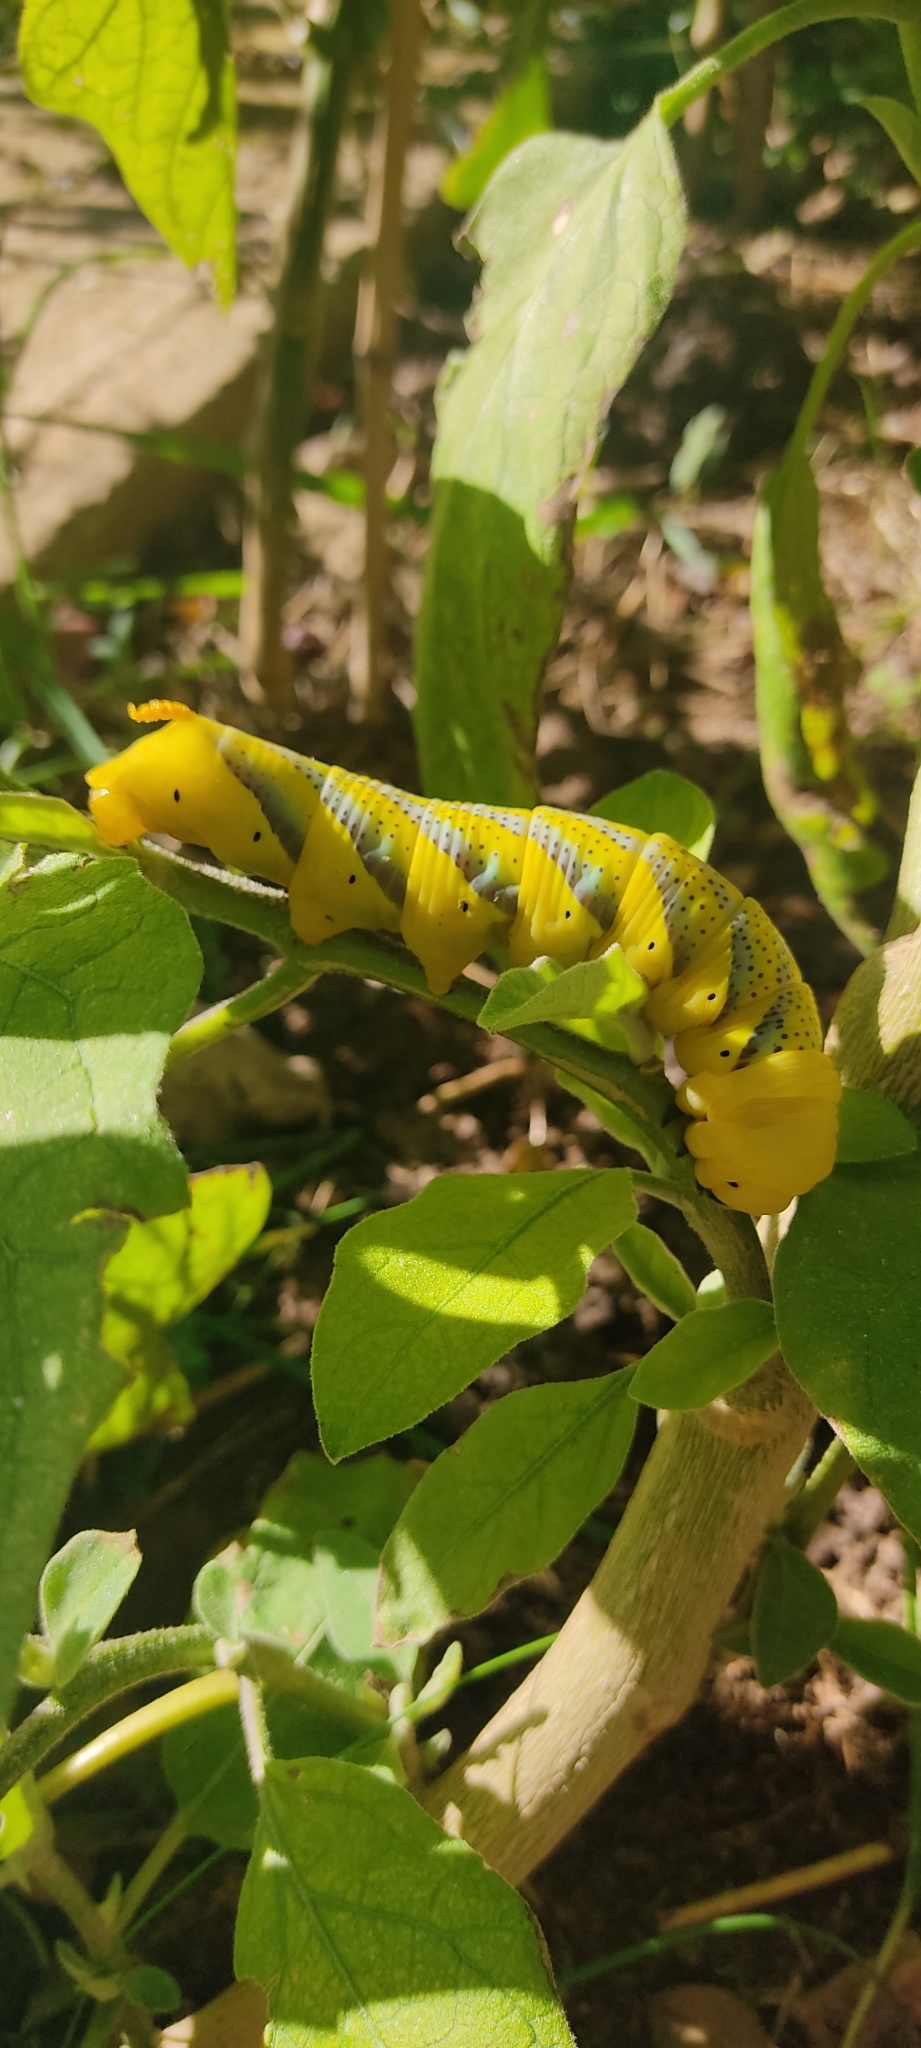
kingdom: Animalia
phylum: Arthropoda
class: Insecta
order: Lepidoptera
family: Sphingidae
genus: Acherontia
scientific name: Acherontia atropos
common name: Death's-head hawk moth
